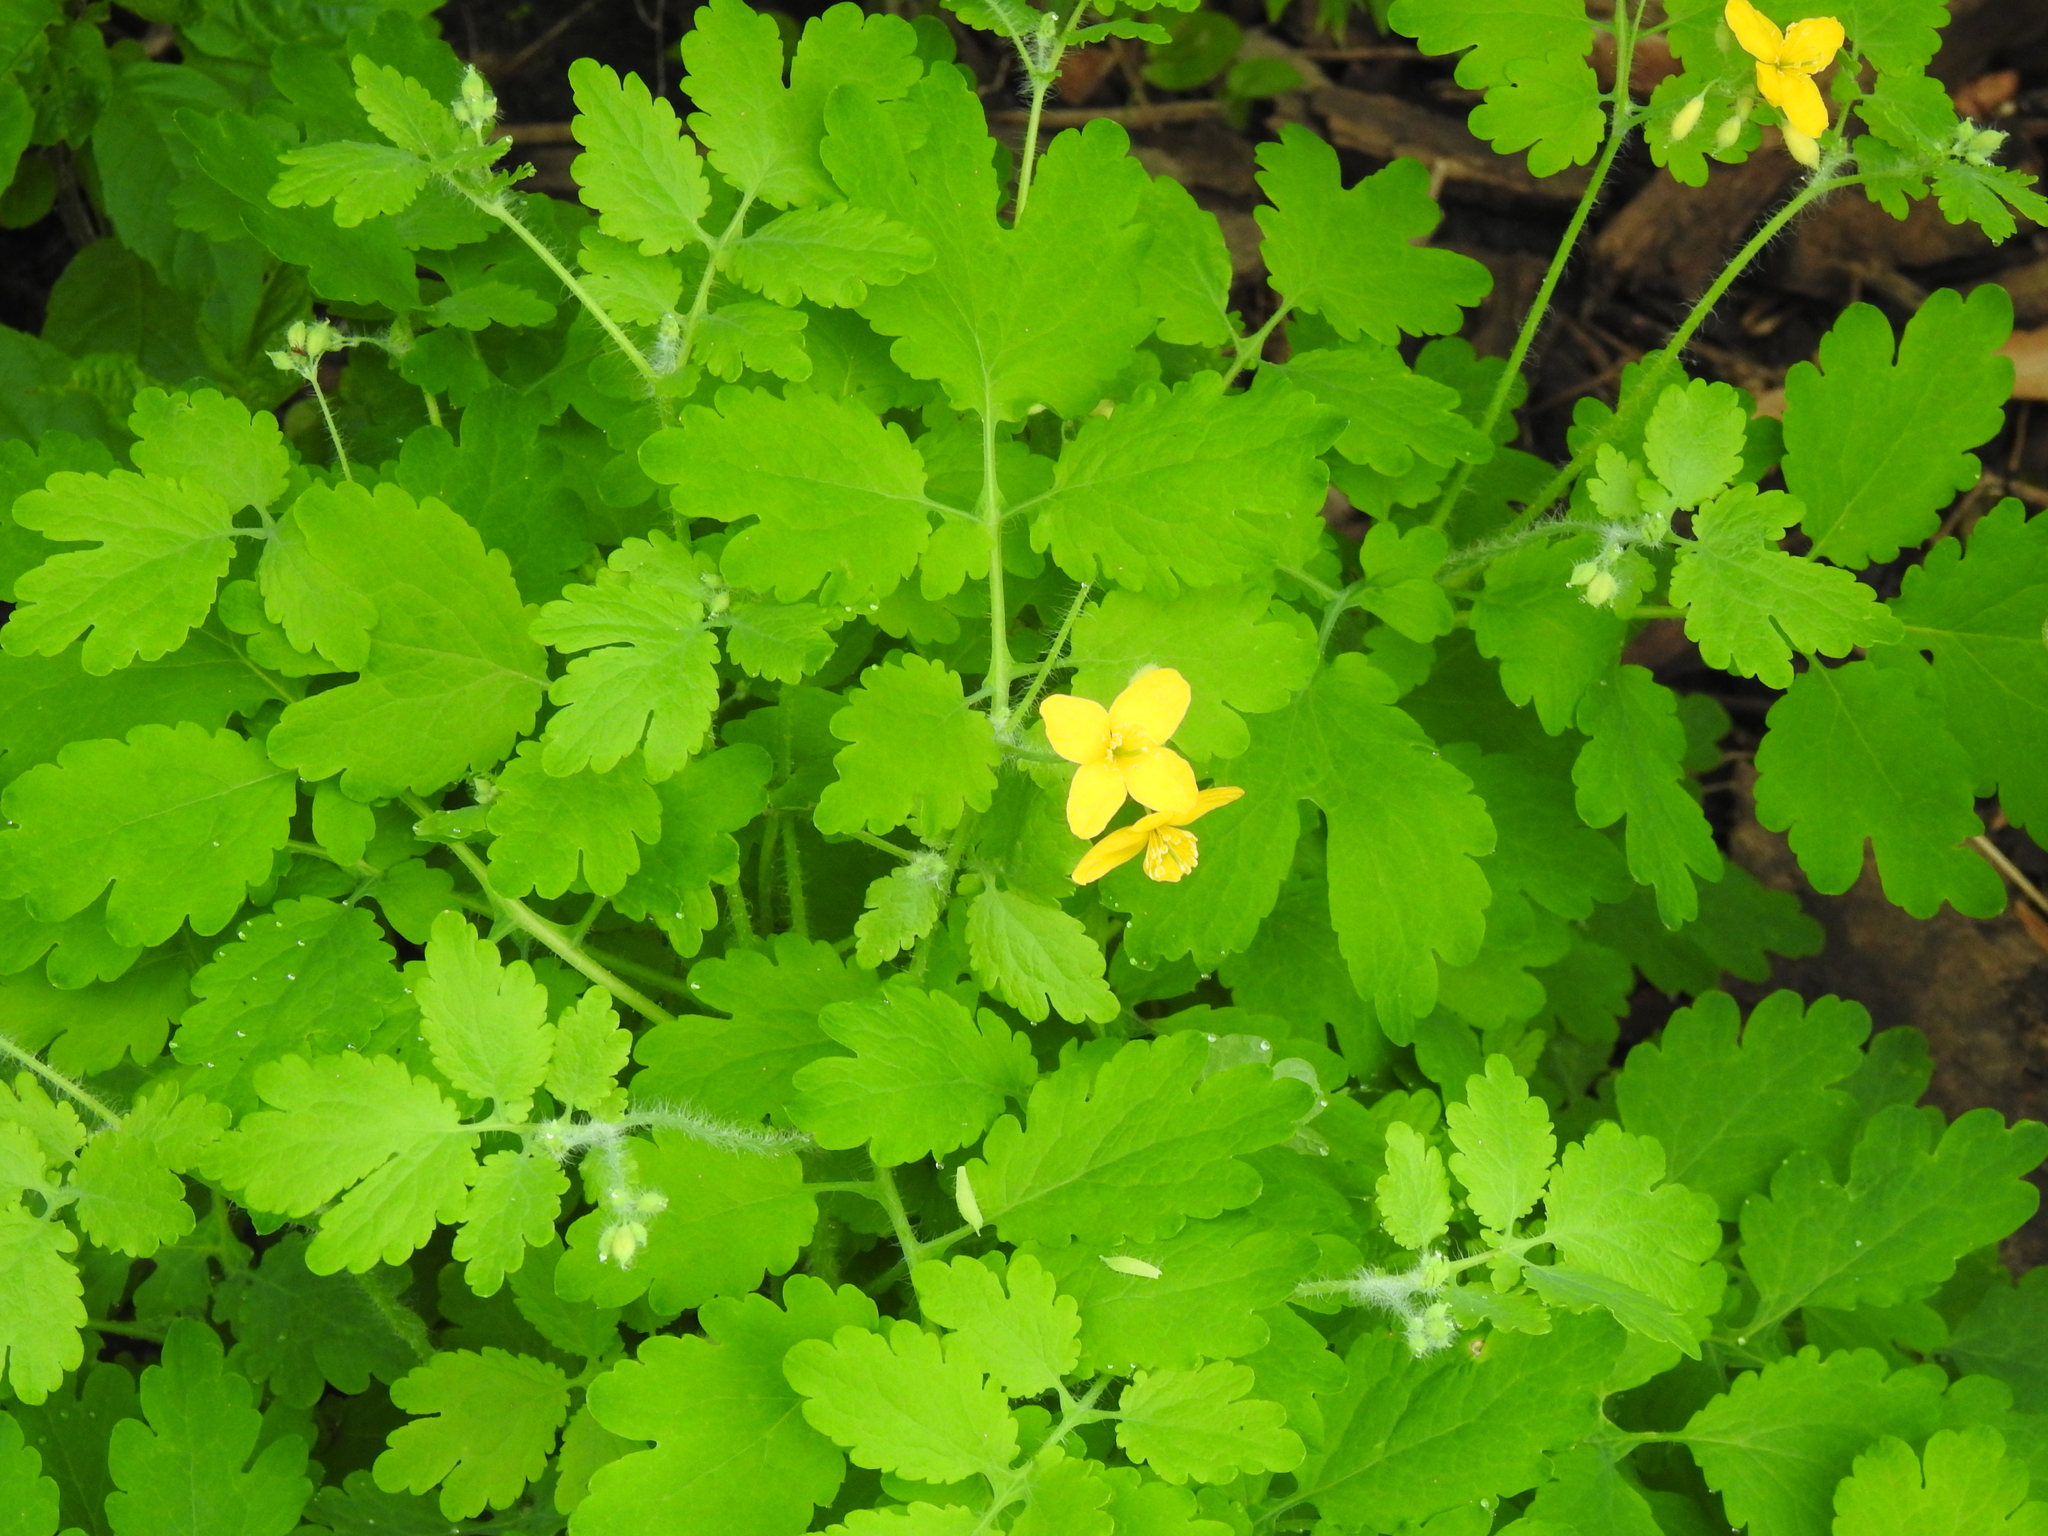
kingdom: Plantae
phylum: Tracheophyta
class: Magnoliopsida
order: Ranunculales
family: Papaveraceae
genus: Chelidonium
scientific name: Chelidonium majus
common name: Greater celandine
